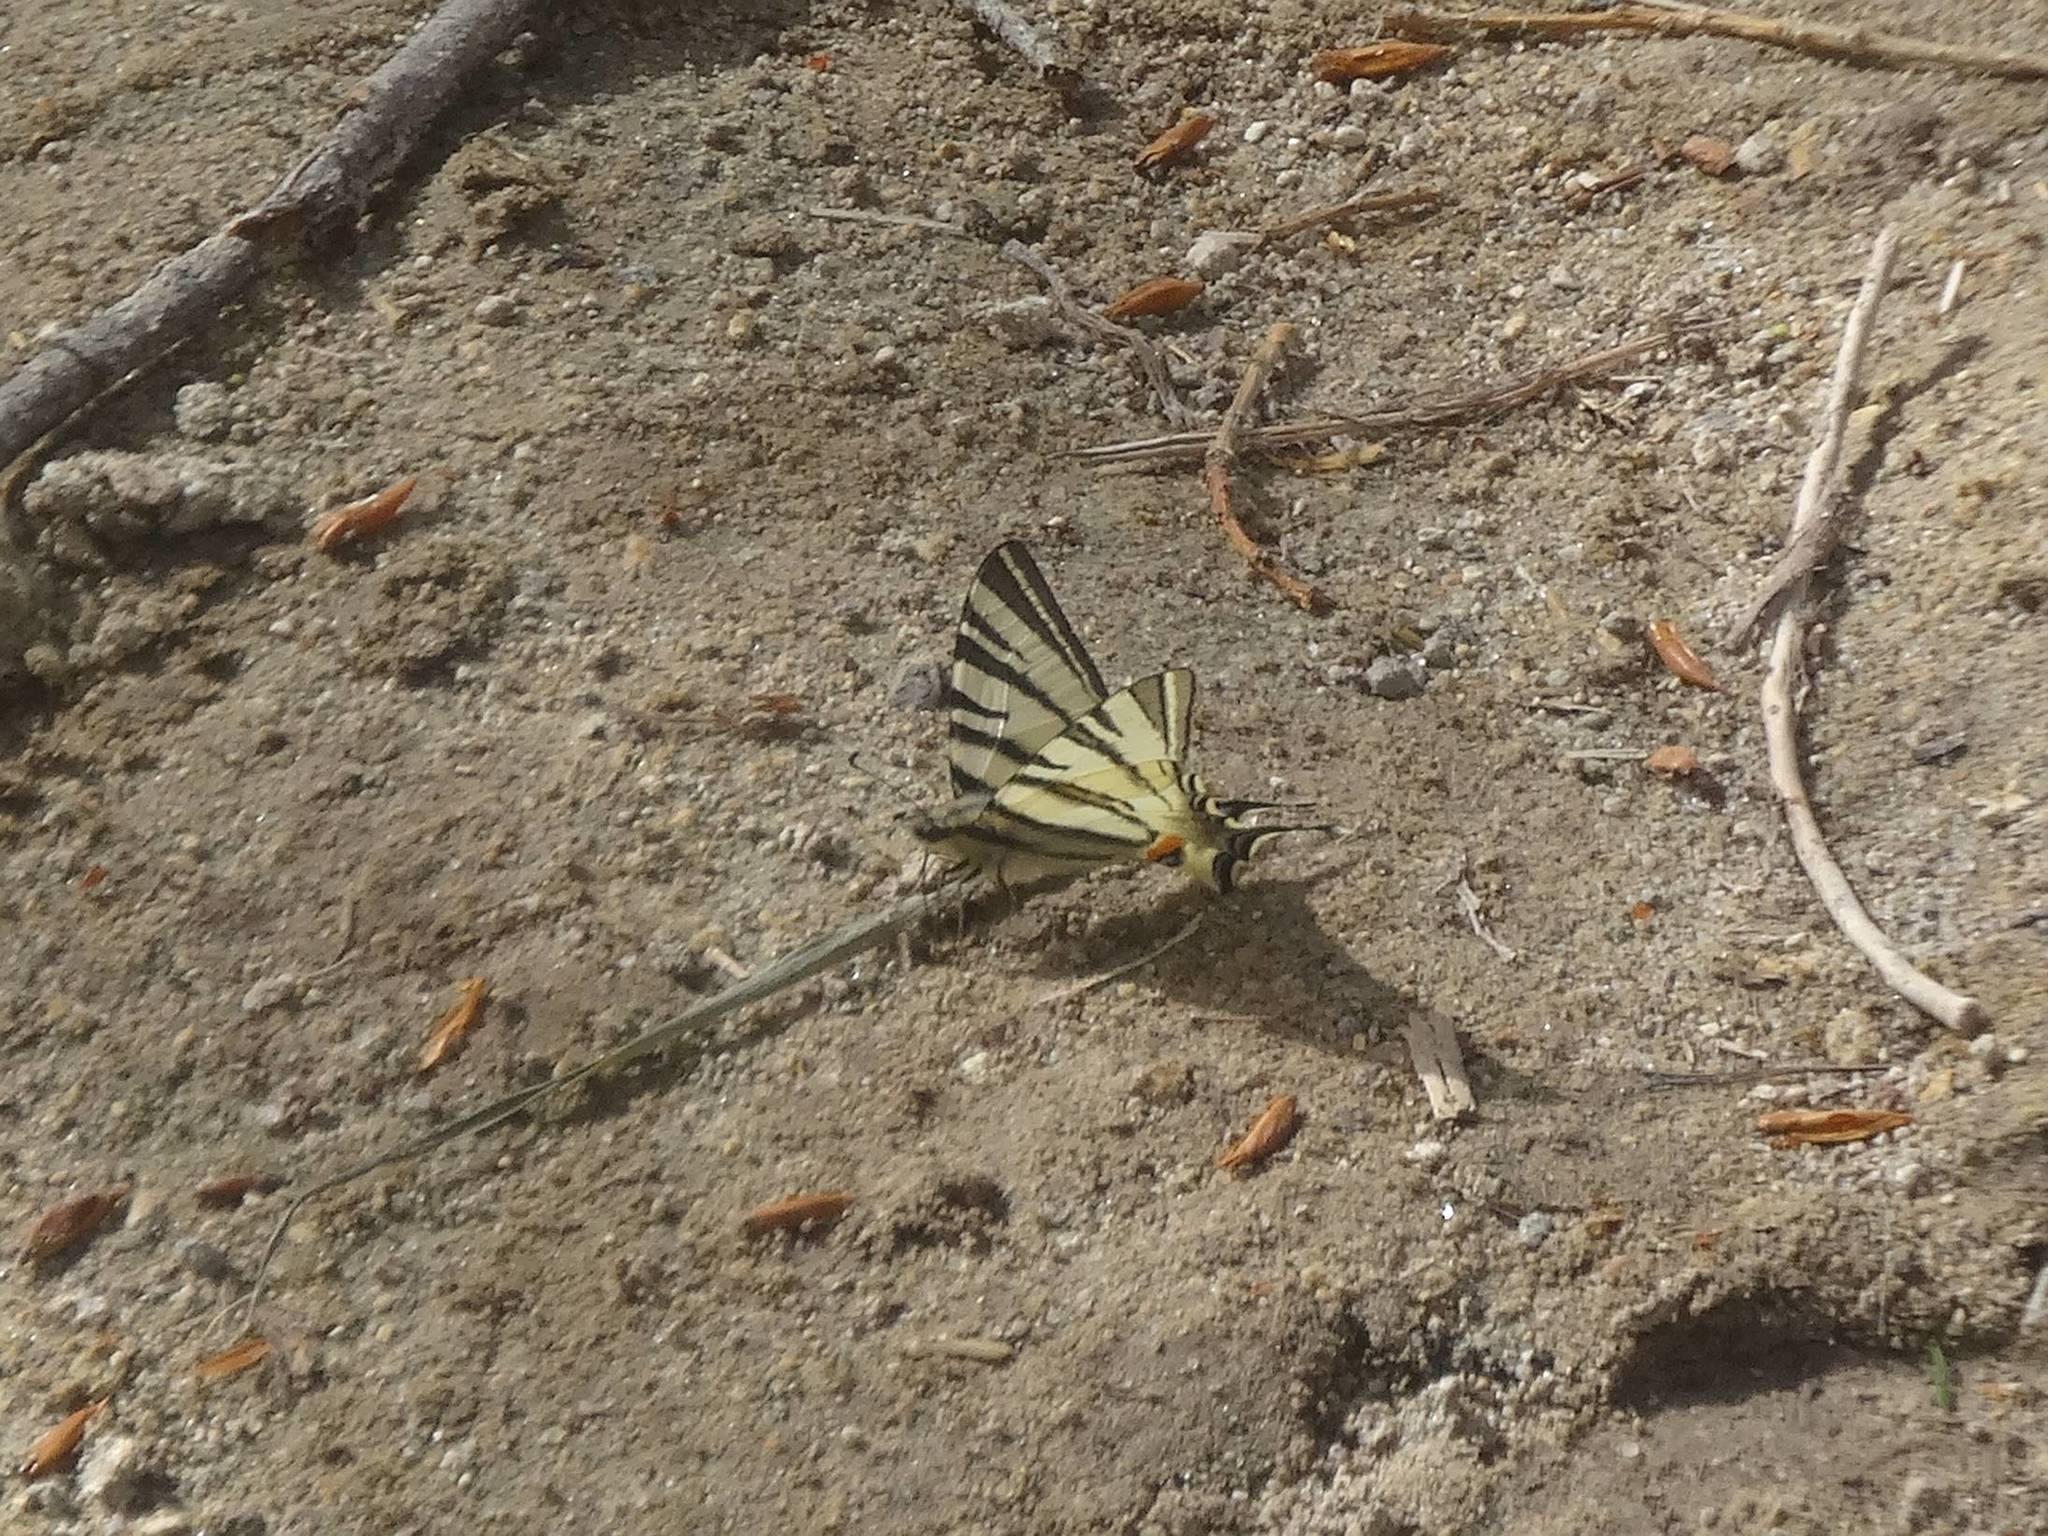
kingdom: Animalia
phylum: Arthropoda
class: Insecta
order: Lepidoptera
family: Papilionidae
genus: Iphiclides
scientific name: Iphiclides podalirius
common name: Scarce swallowtail
